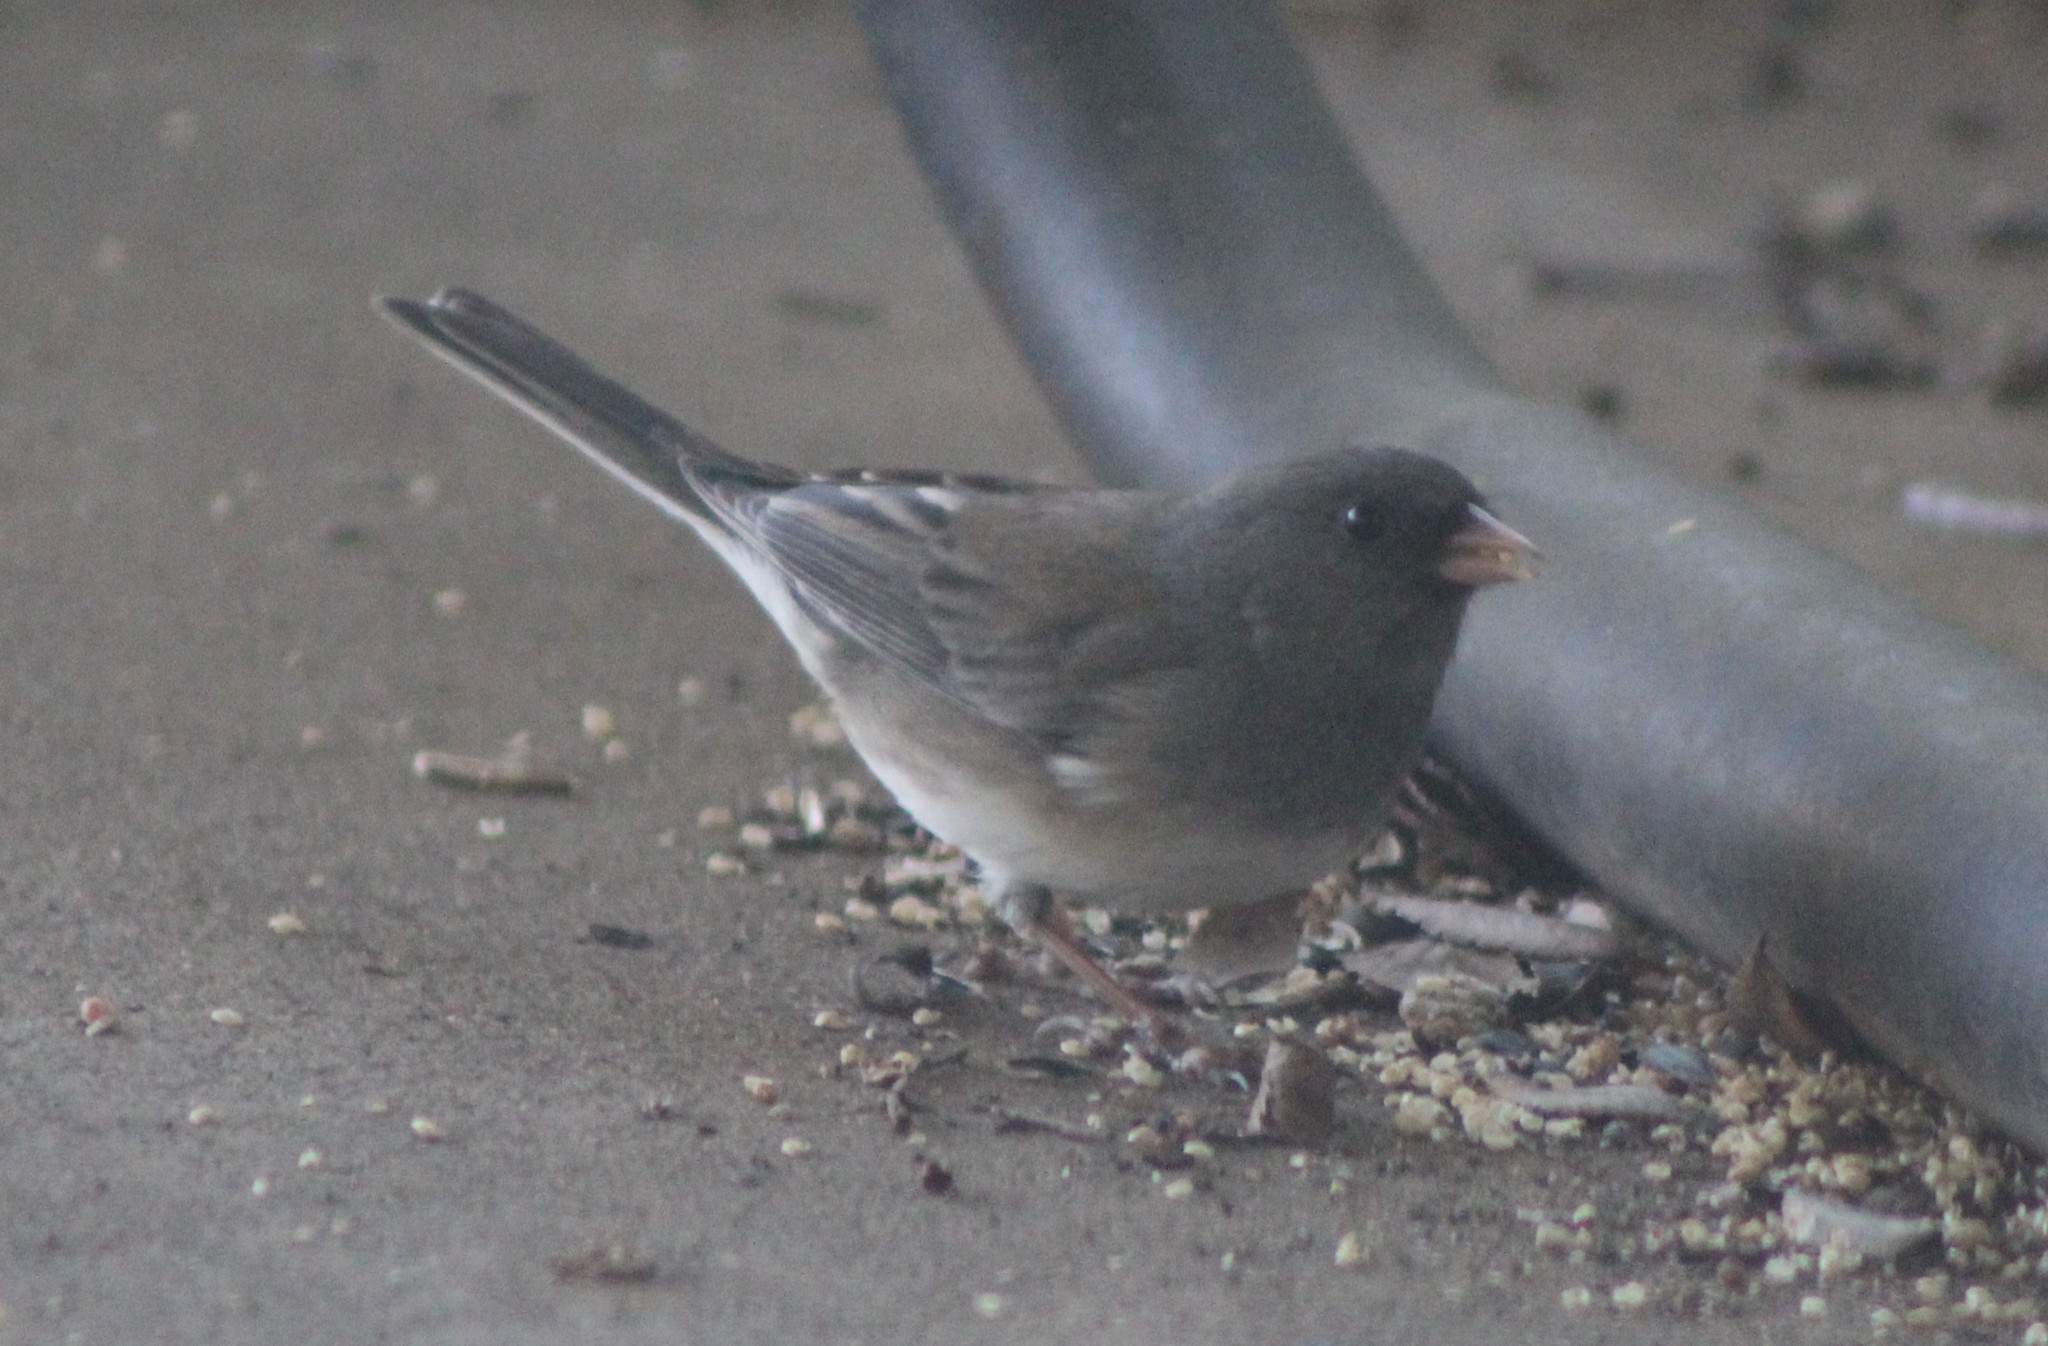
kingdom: Animalia
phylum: Chordata
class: Aves
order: Passeriformes
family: Passerellidae
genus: Junco
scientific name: Junco hyemalis
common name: Dark-eyed junco
